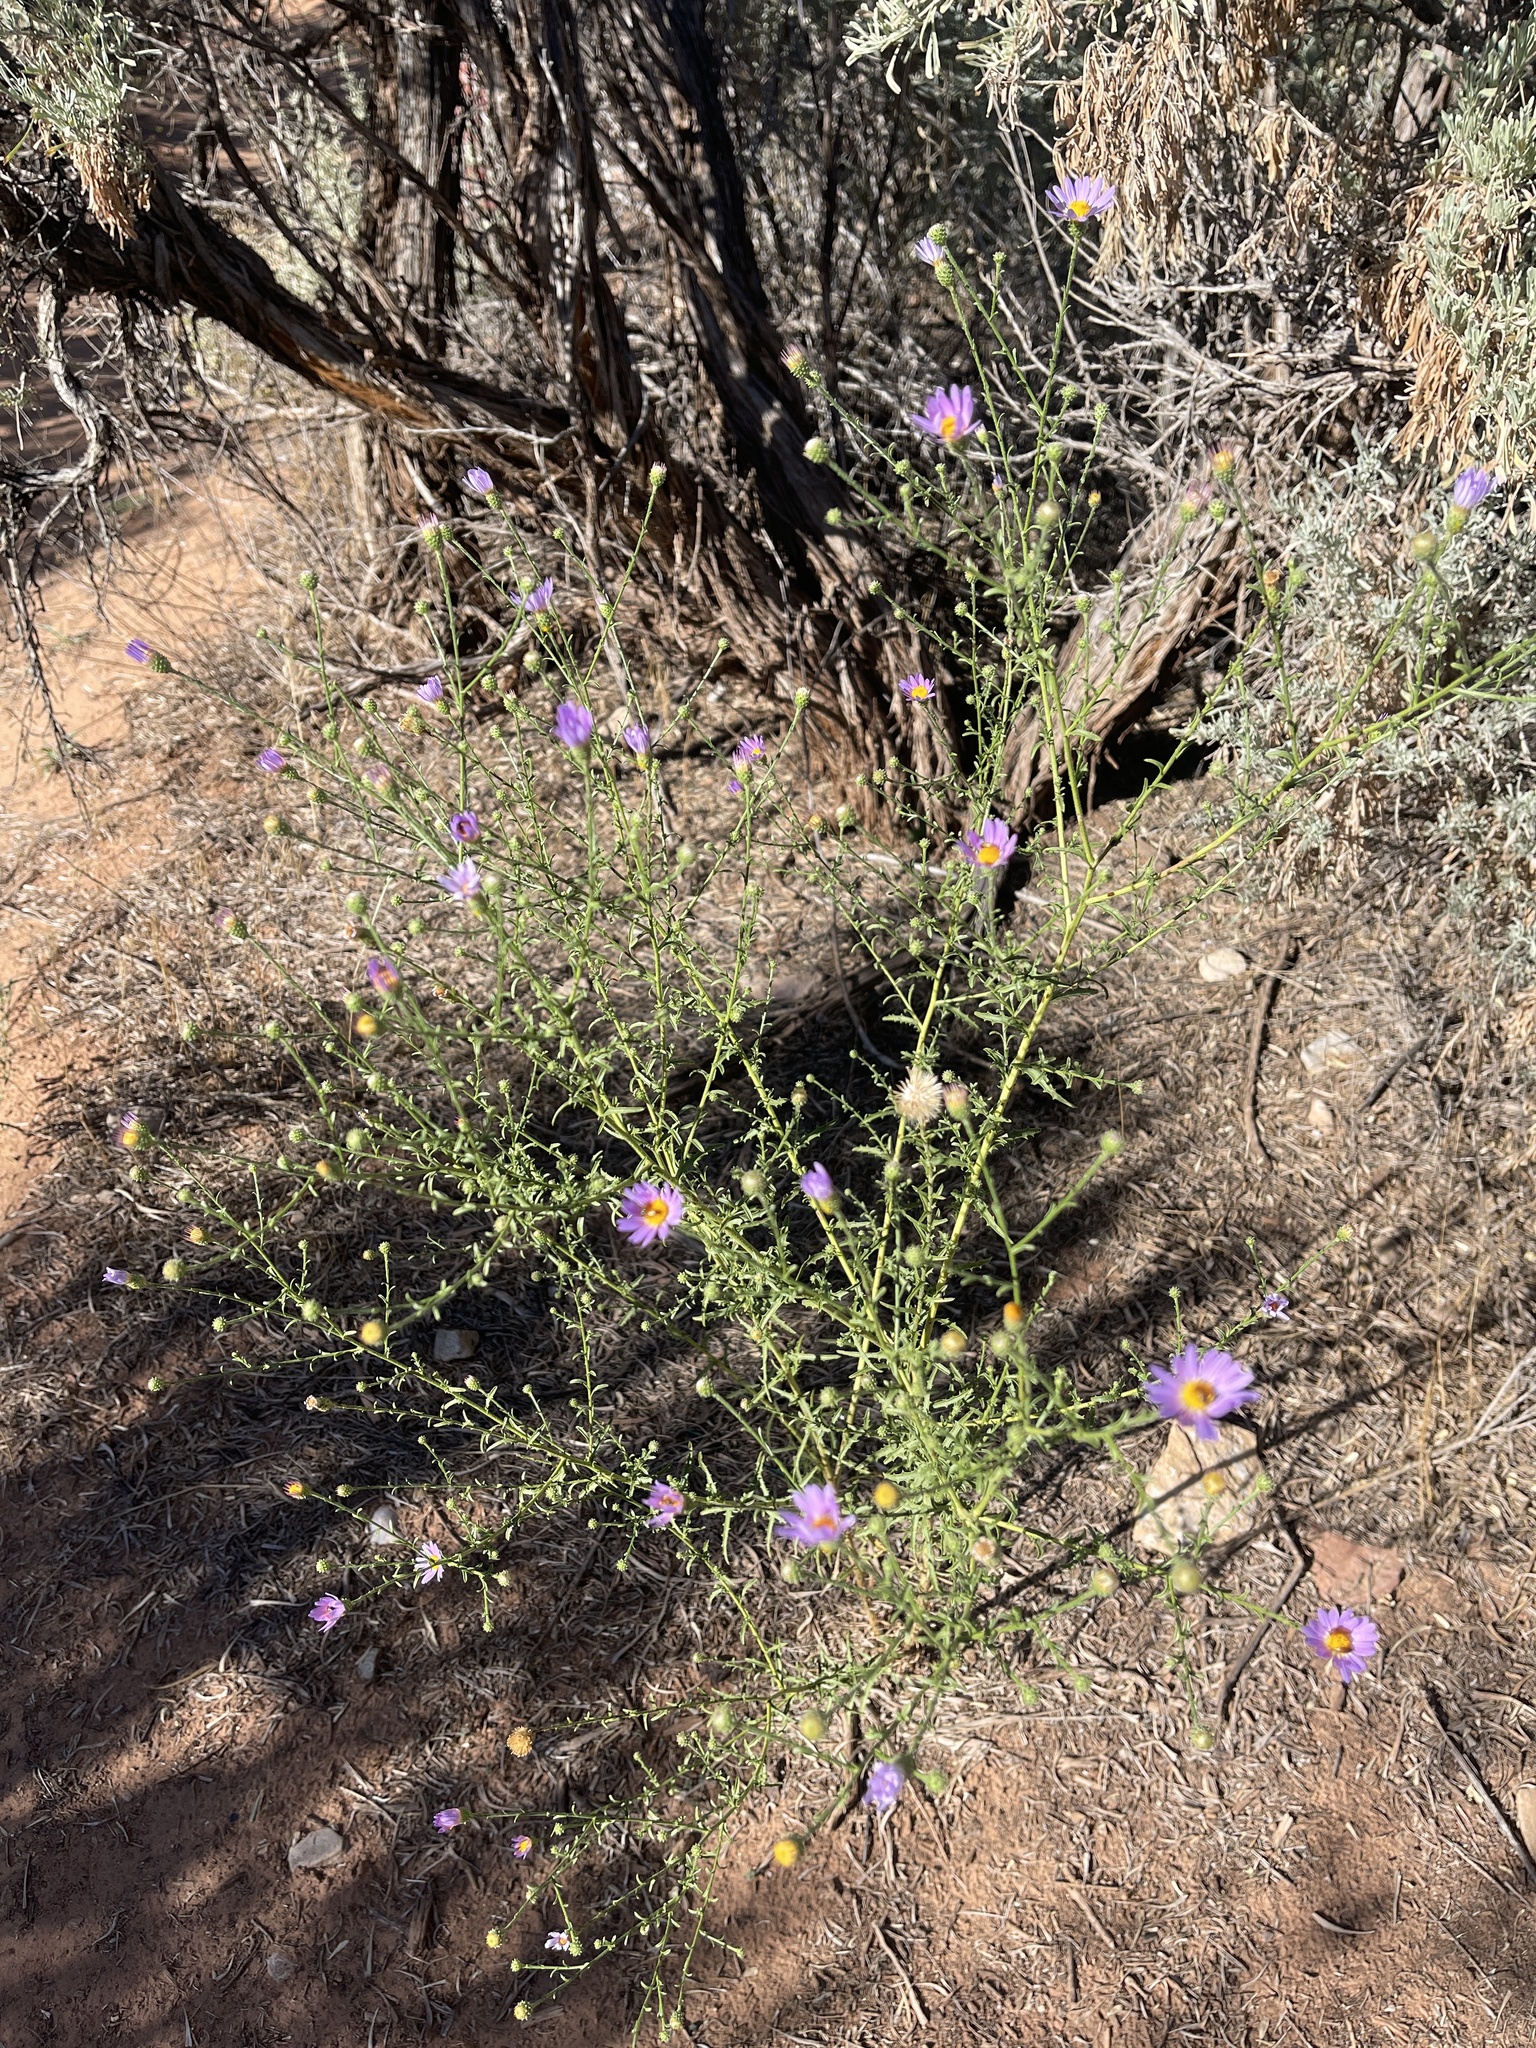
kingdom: Plantae
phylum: Tracheophyta
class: Magnoliopsida
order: Asterales
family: Asteraceae
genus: Dieteria
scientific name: Dieteria canescens
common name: Hoary-aster
